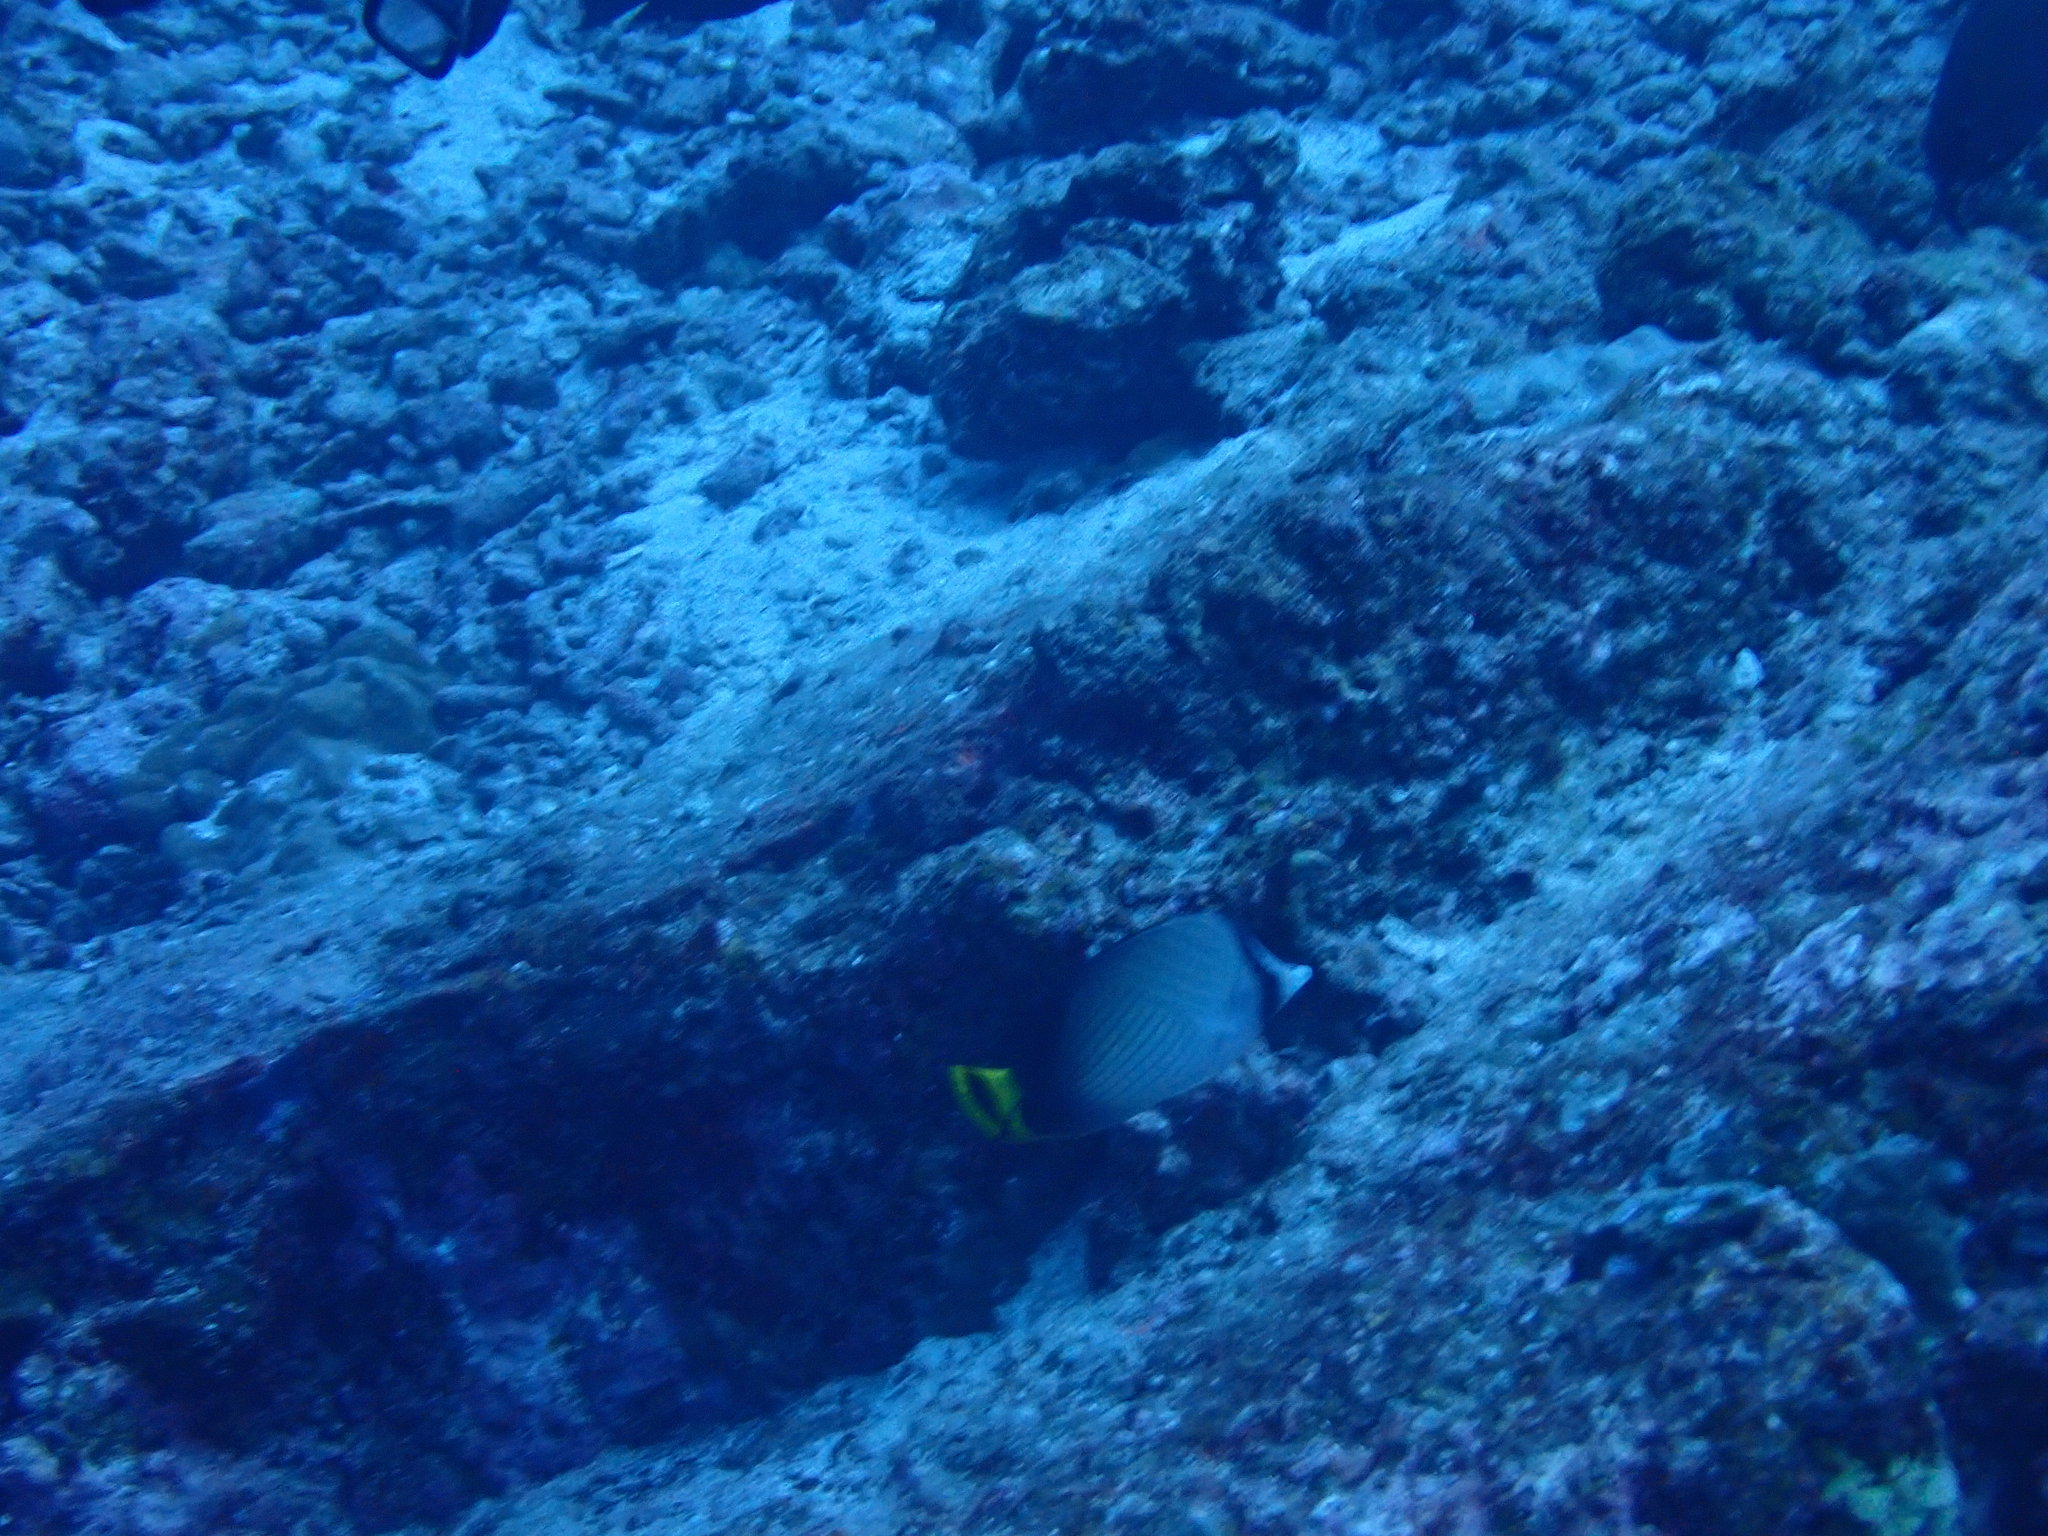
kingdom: Animalia
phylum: Chordata
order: Perciformes
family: Chaetodontidae
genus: Chaetodon
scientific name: Chaetodon decussatus
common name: Indian vagabond butterflyfish
